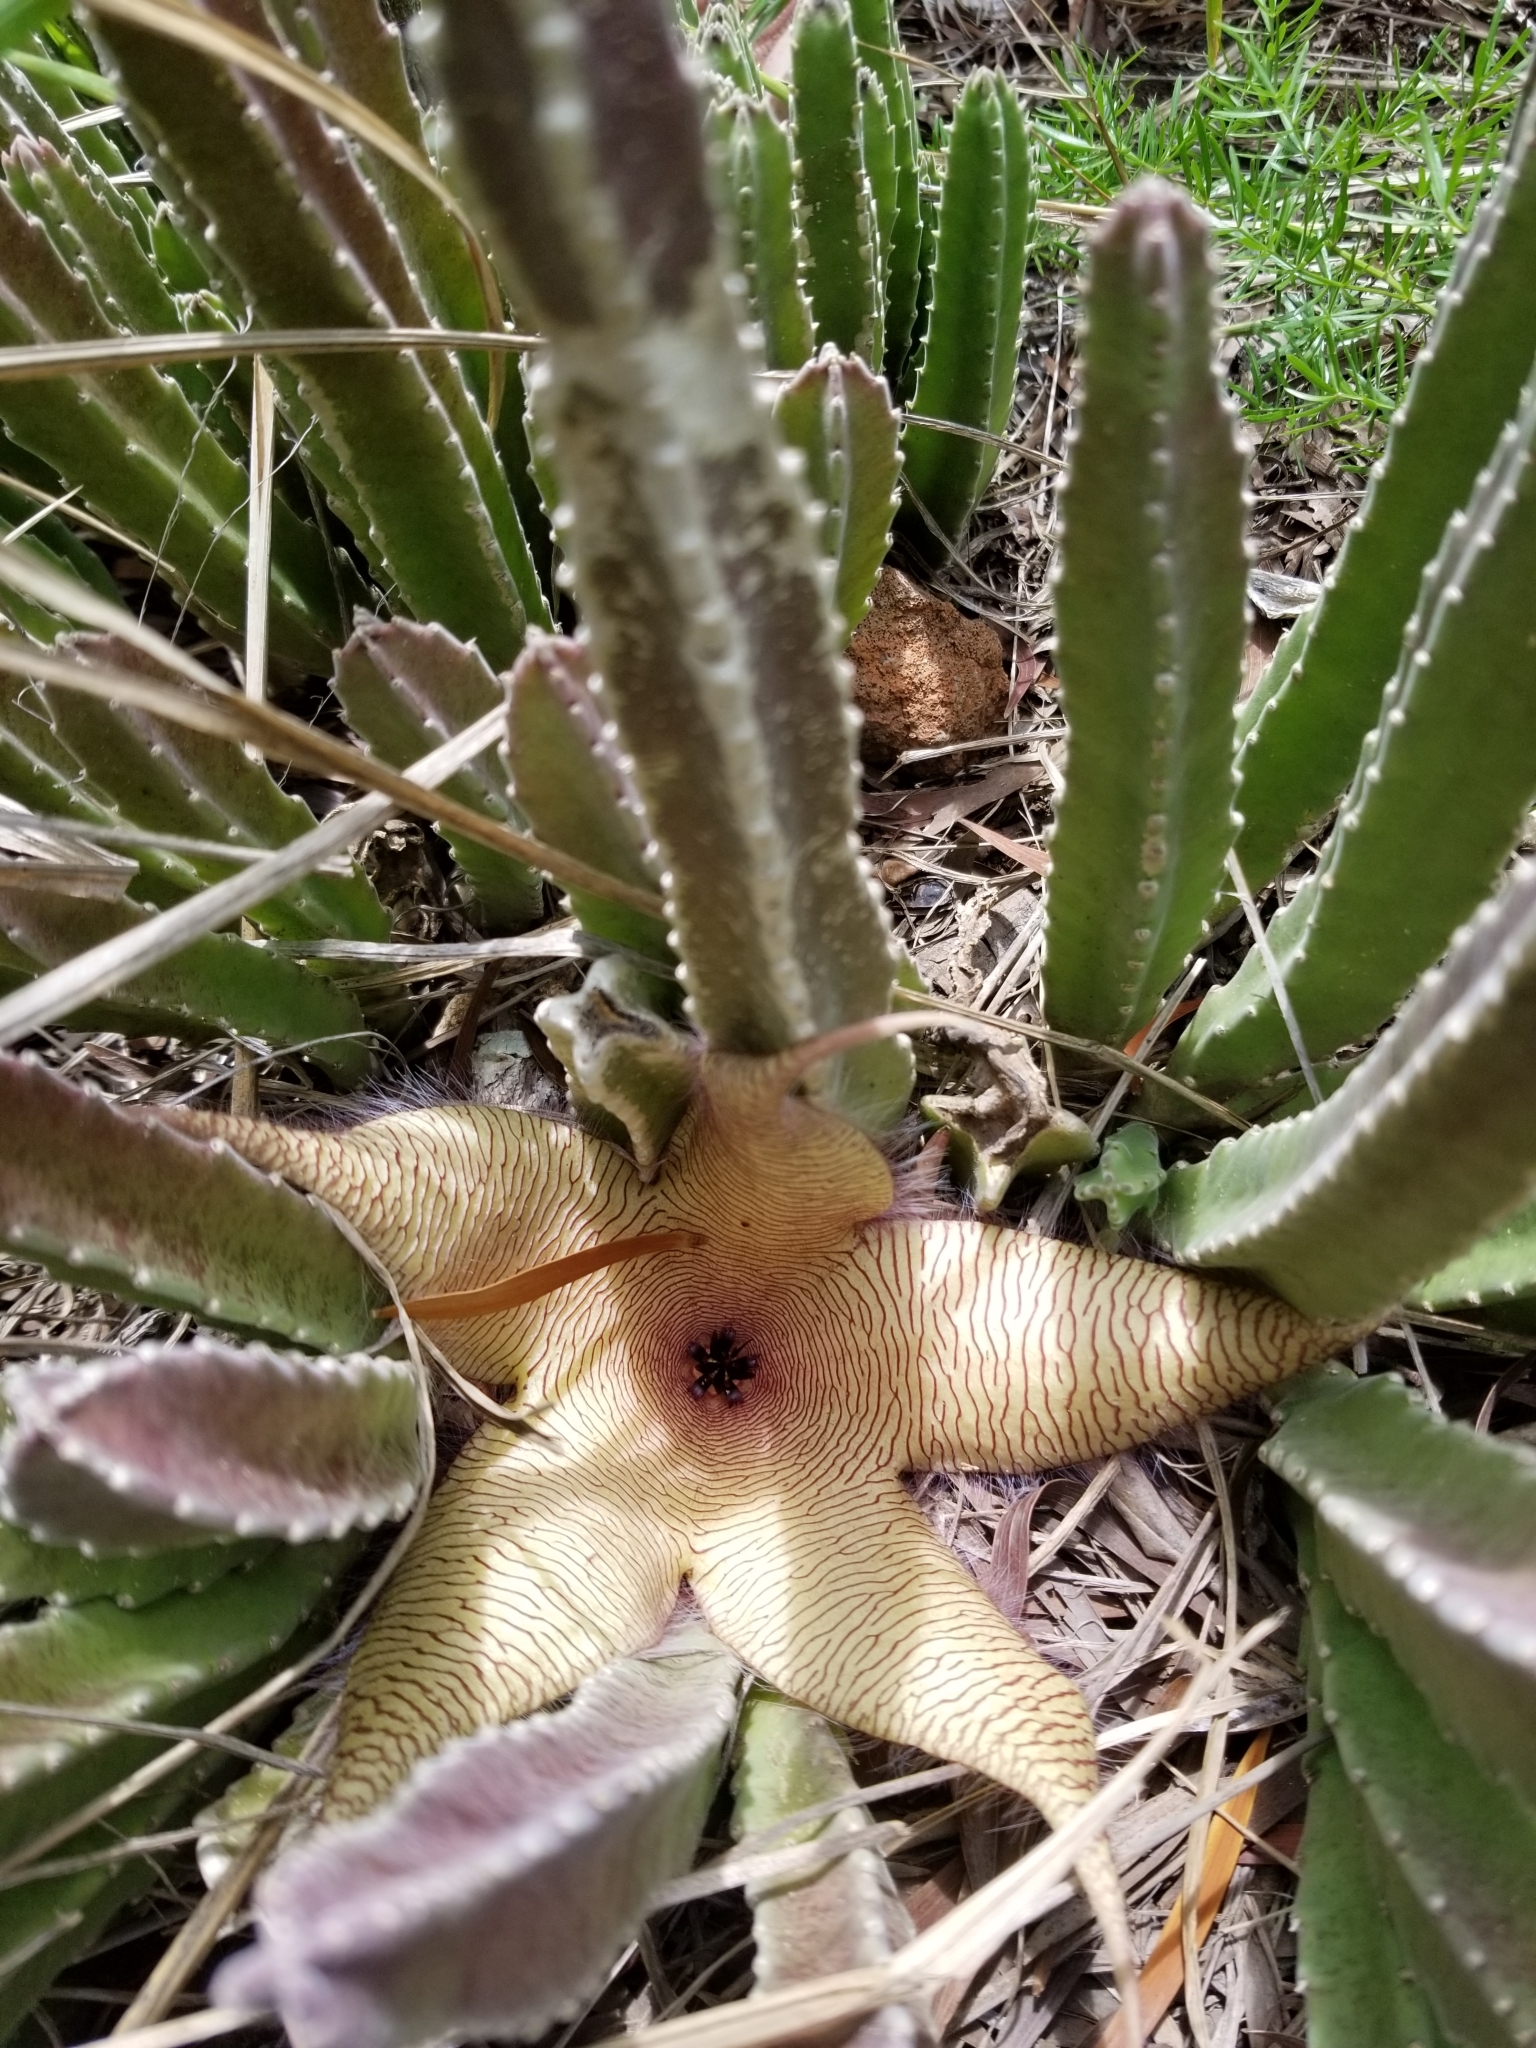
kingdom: Plantae
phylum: Tracheophyta
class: Magnoliopsida
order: Gentianales
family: Apocynaceae
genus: Ceropegia
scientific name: Ceropegia gigantea
